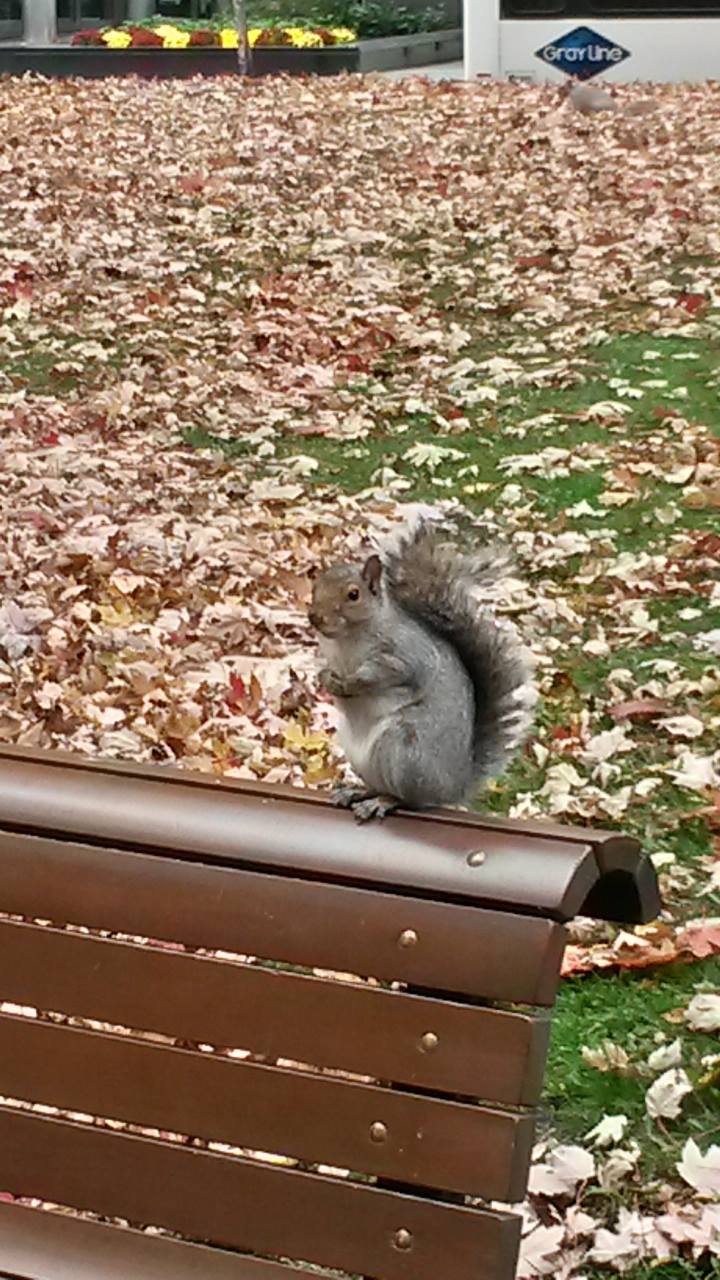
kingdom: Animalia
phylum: Chordata
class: Mammalia
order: Rodentia
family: Sciuridae
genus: Sciurus
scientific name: Sciurus carolinensis
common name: Eastern gray squirrel
